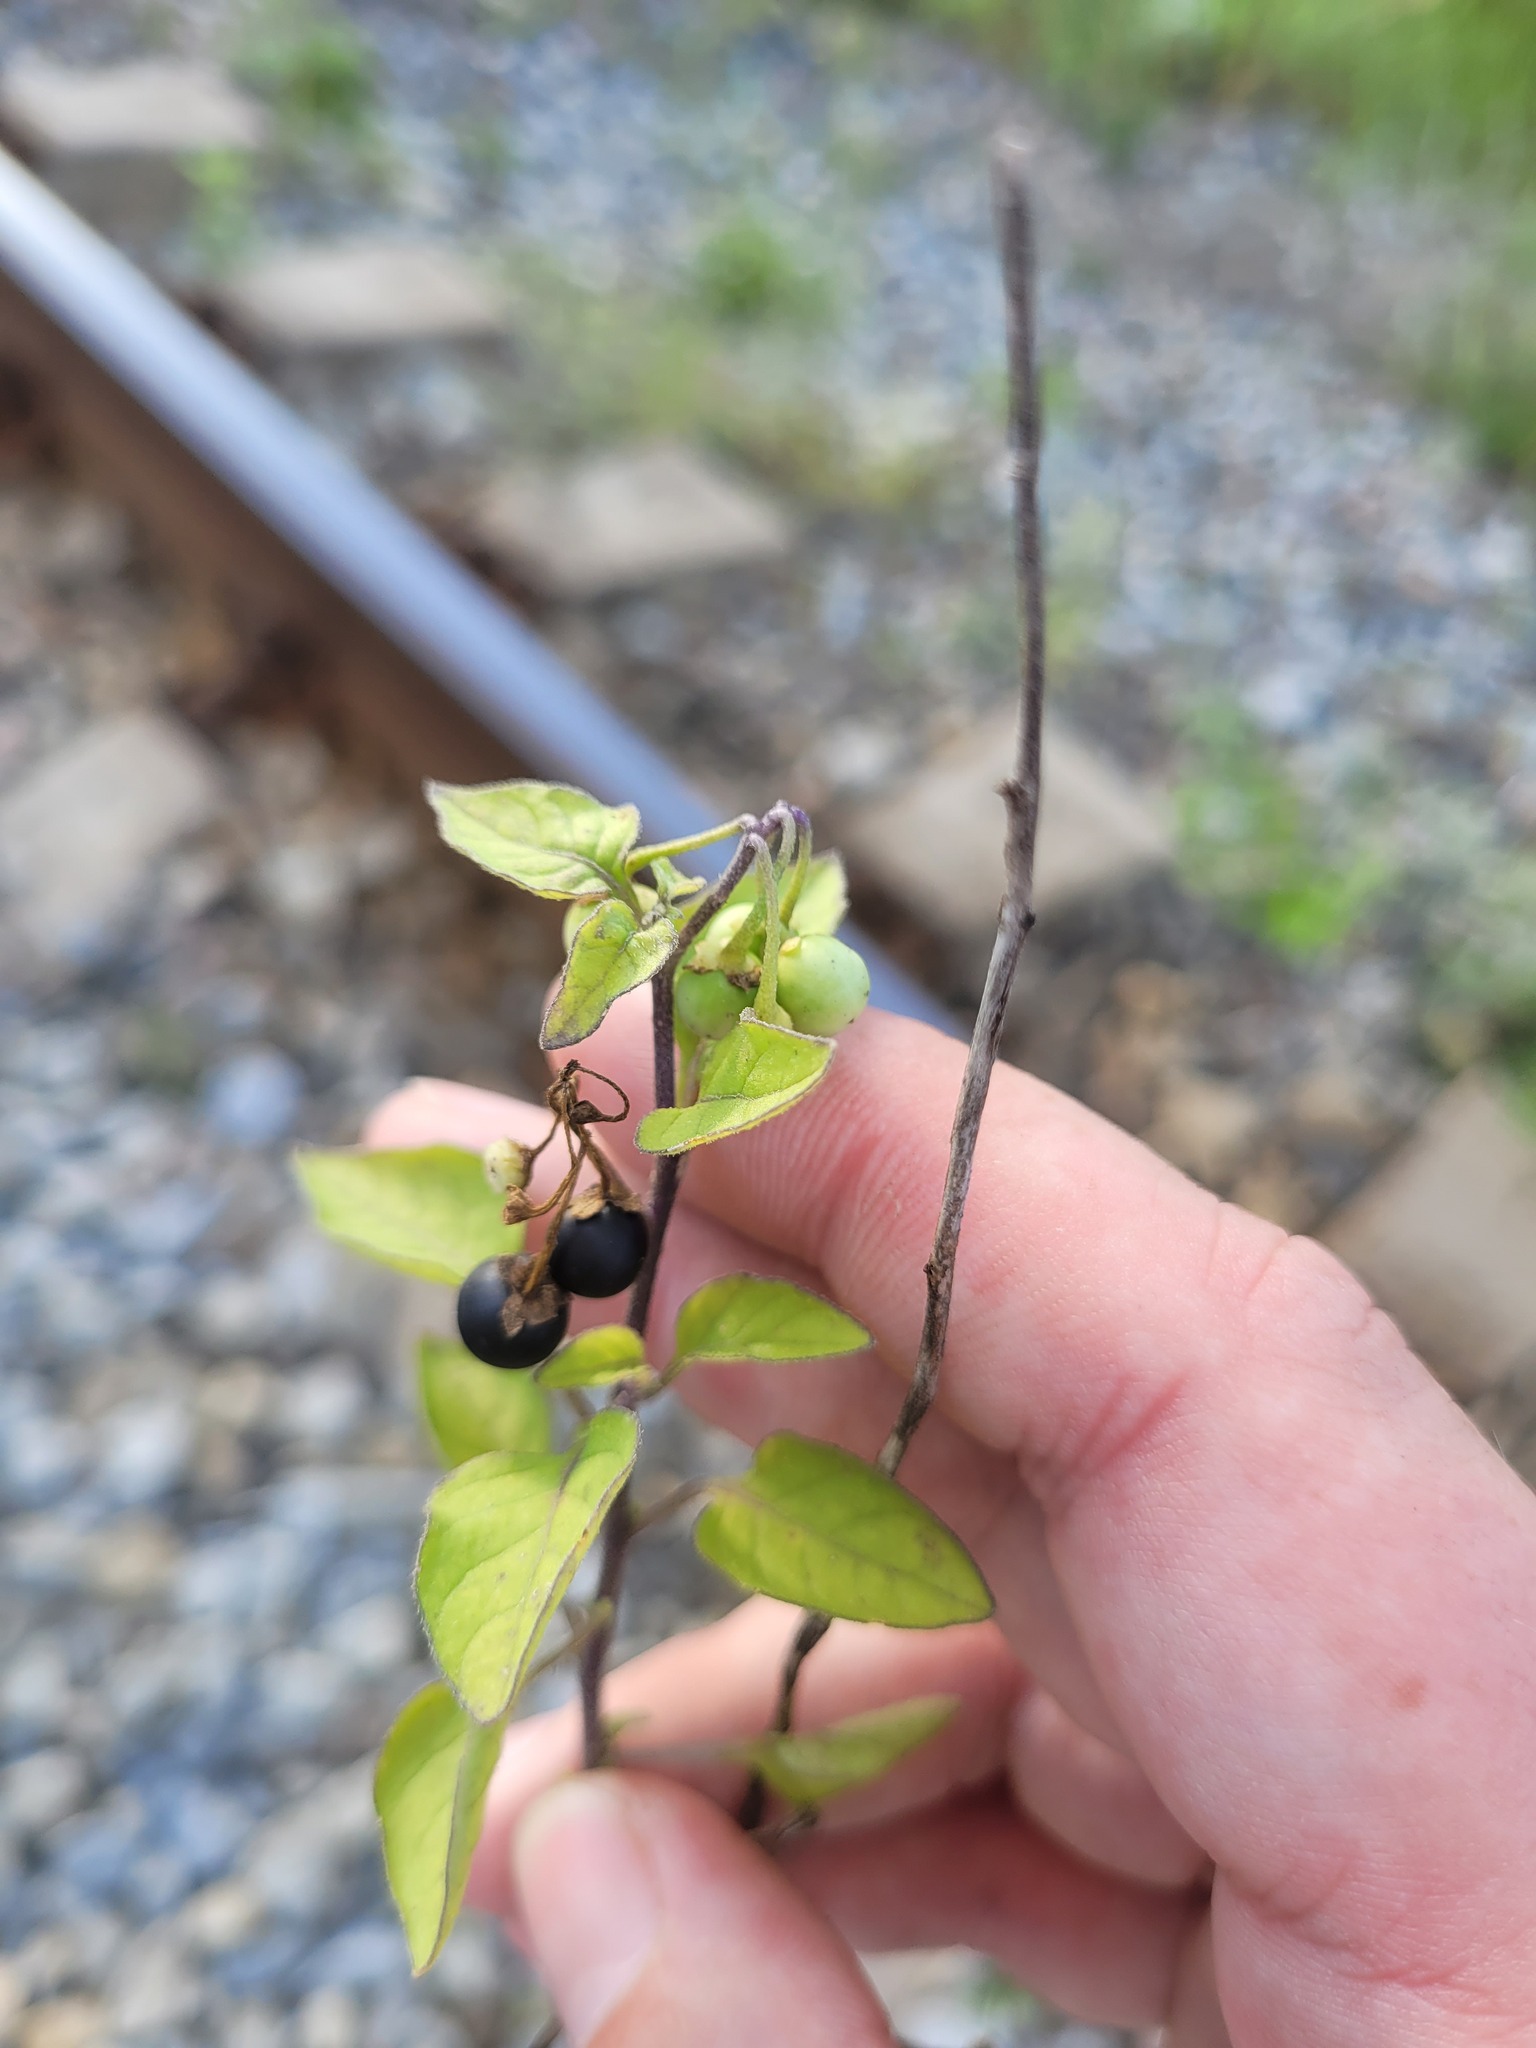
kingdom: Plantae
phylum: Tracheophyta
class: Magnoliopsida
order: Solanales
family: Solanaceae
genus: Solanum
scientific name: Solanum nigrum
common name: Black nightshade
